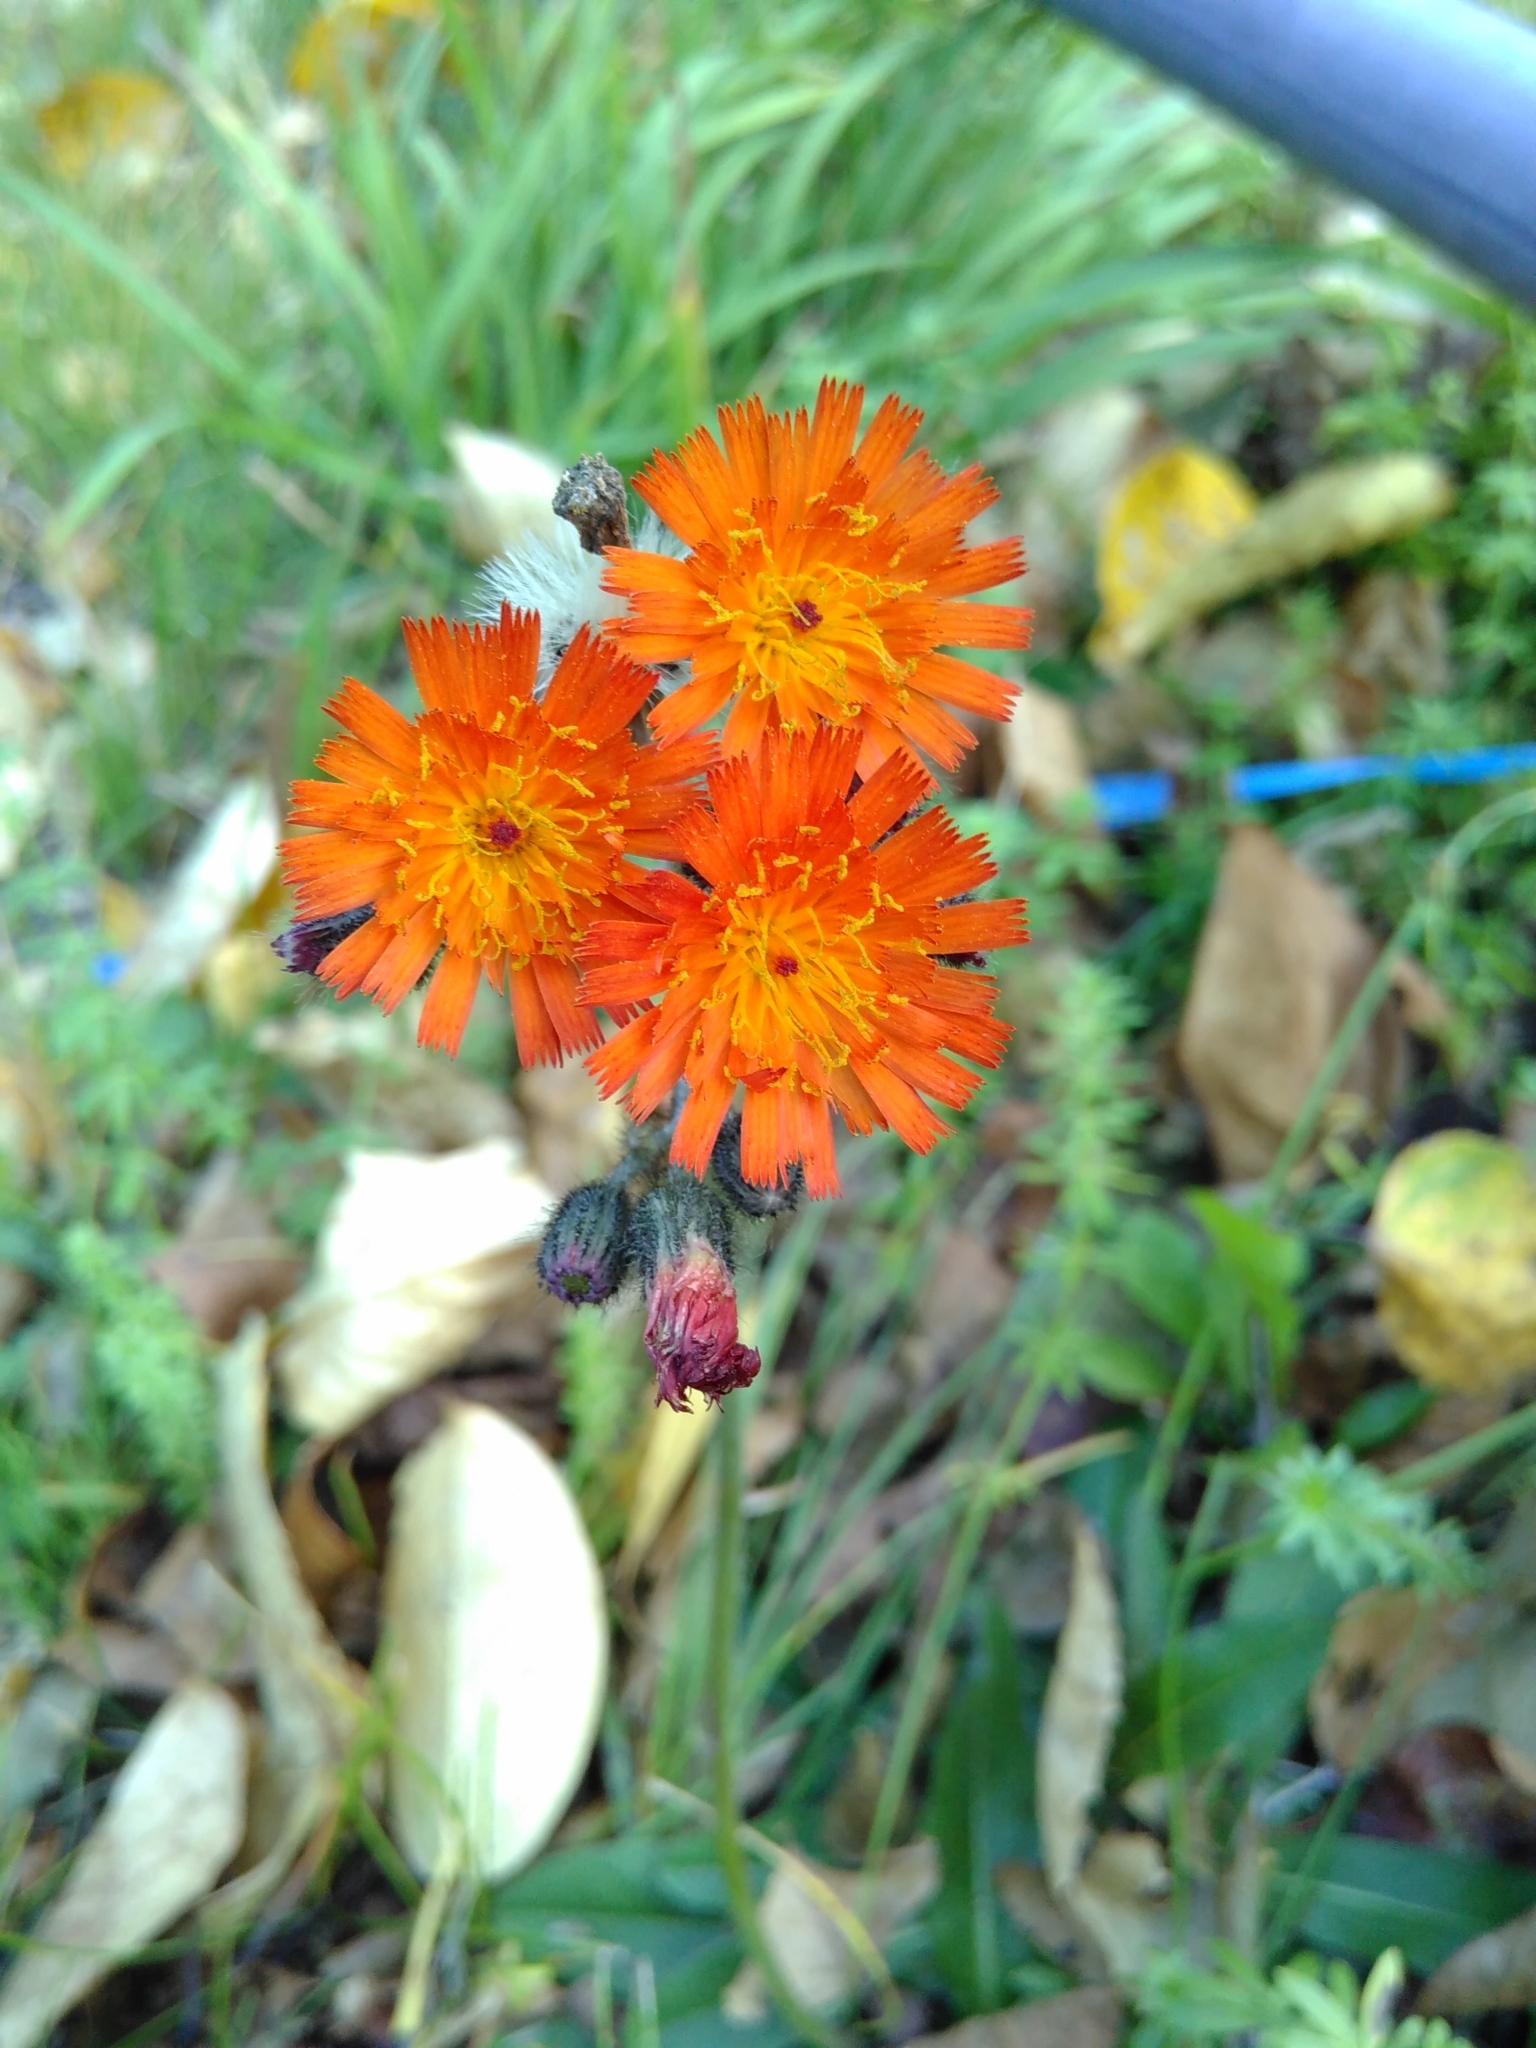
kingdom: Plantae
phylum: Tracheophyta
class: Magnoliopsida
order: Asterales
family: Asteraceae
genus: Pilosella
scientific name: Pilosella aurantiaca
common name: Fox-and-cubs
